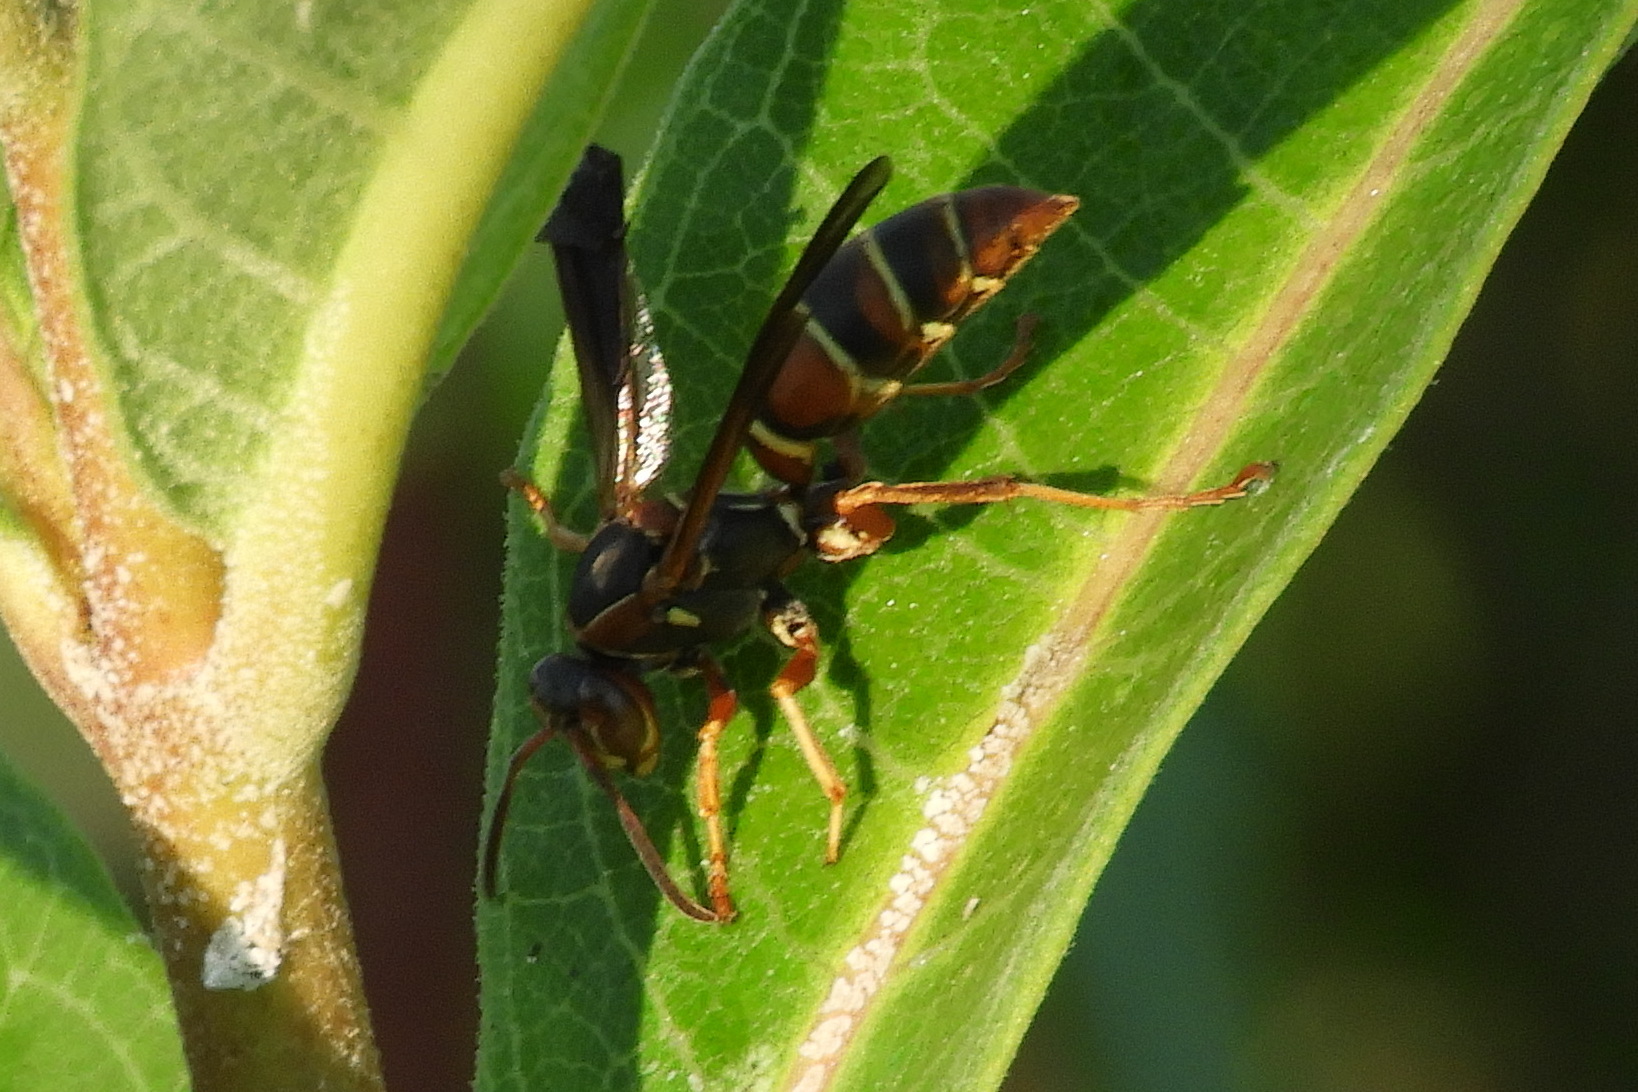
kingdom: Animalia
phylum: Arthropoda
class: Insecta
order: Hymenoptera
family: Eumenidae
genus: Polistes
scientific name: Polistes fuscatus
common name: Dark paper wasp
